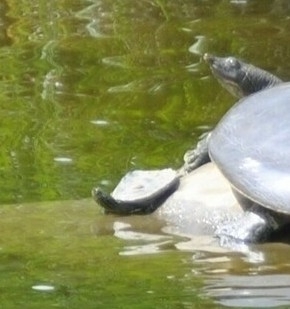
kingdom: Animalia
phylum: Chordata
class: Testudines
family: Emydidae
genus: Graptemys
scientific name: Graptemys geographica
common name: Common map turtle
